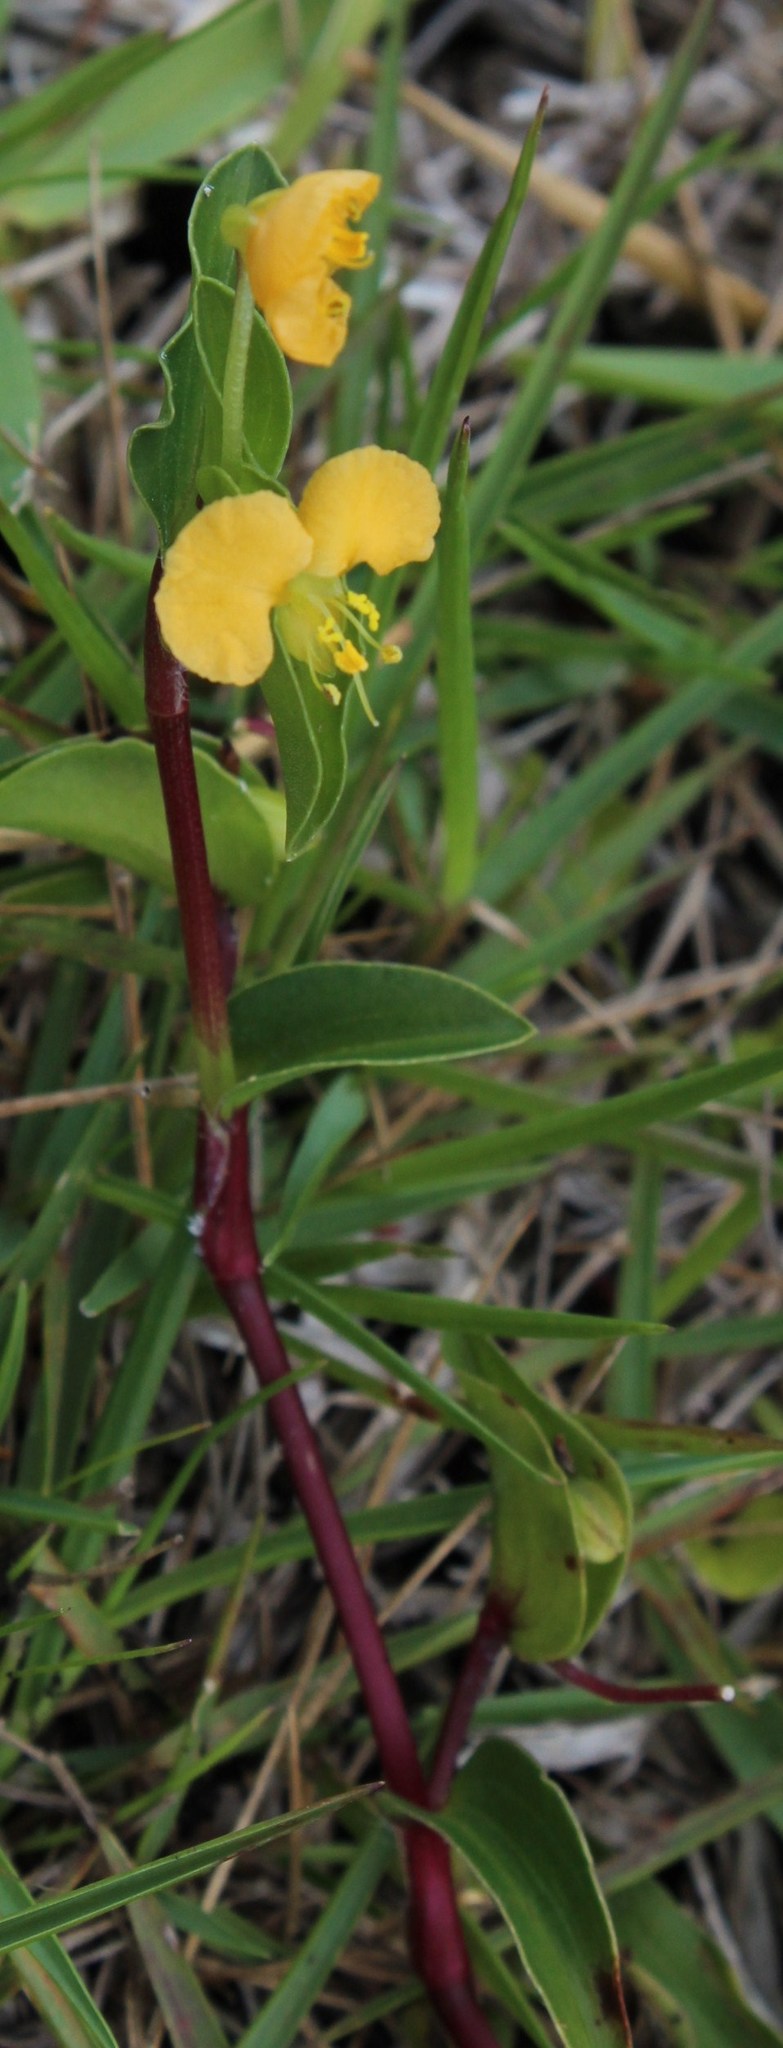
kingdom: Plantae
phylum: Tracheophyta
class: Liliopsida
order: Commelinales
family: Commelinaceae
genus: Commelina
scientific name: Commelina africana
